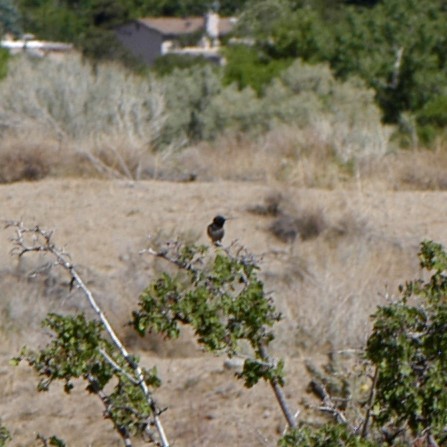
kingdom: Animalia
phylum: Chordata
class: Aves
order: Apodiformes
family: Trochilidae
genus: Archilochus
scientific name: Archilochus alexandri
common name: Black-chinned hummingbird
